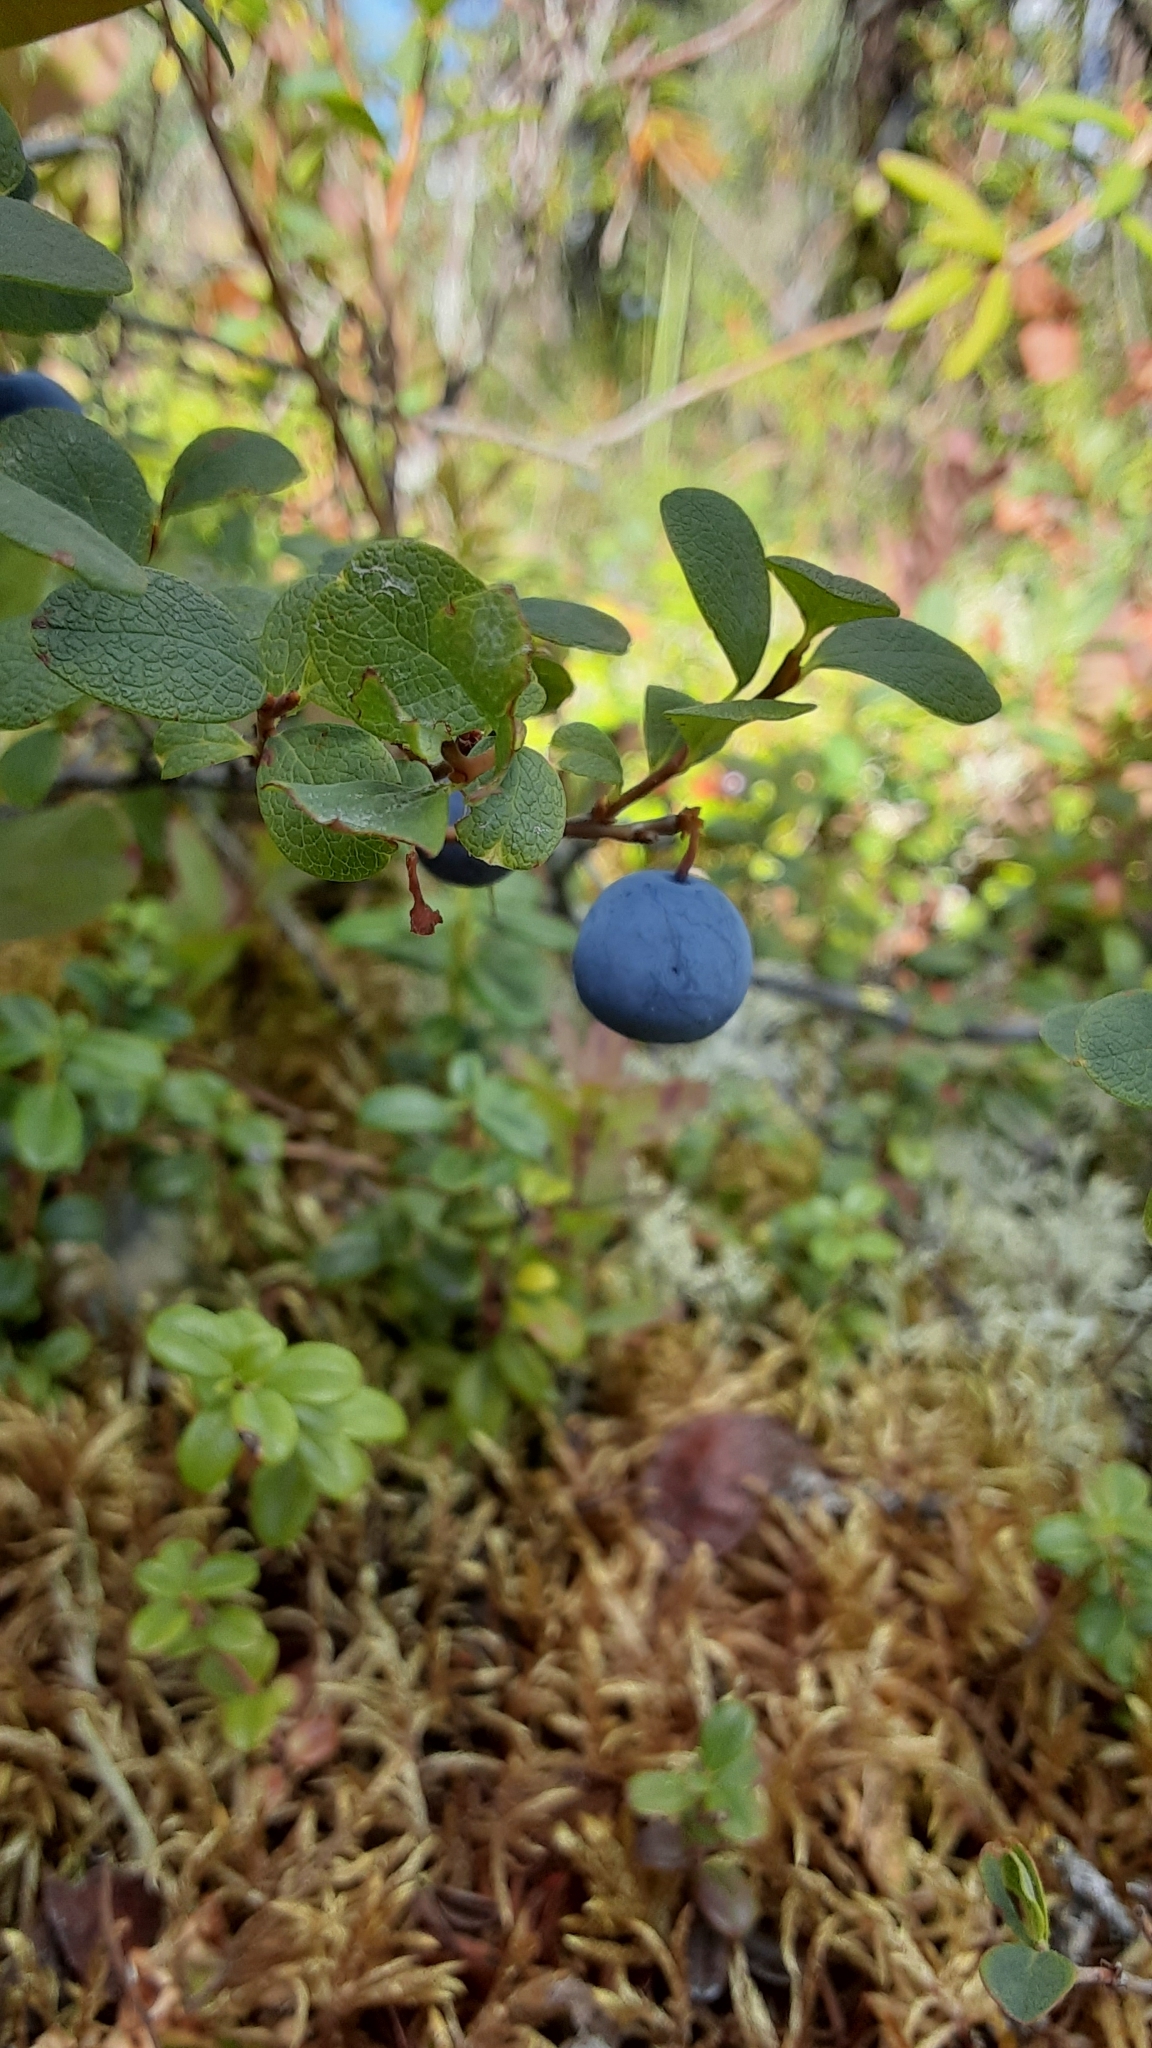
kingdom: Plantae
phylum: Tracheophyta
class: Magnoliopsida
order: Ericales
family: Ericaceae
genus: Vaccinium
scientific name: Vaccinium uliginosum
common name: Bog bilberry
